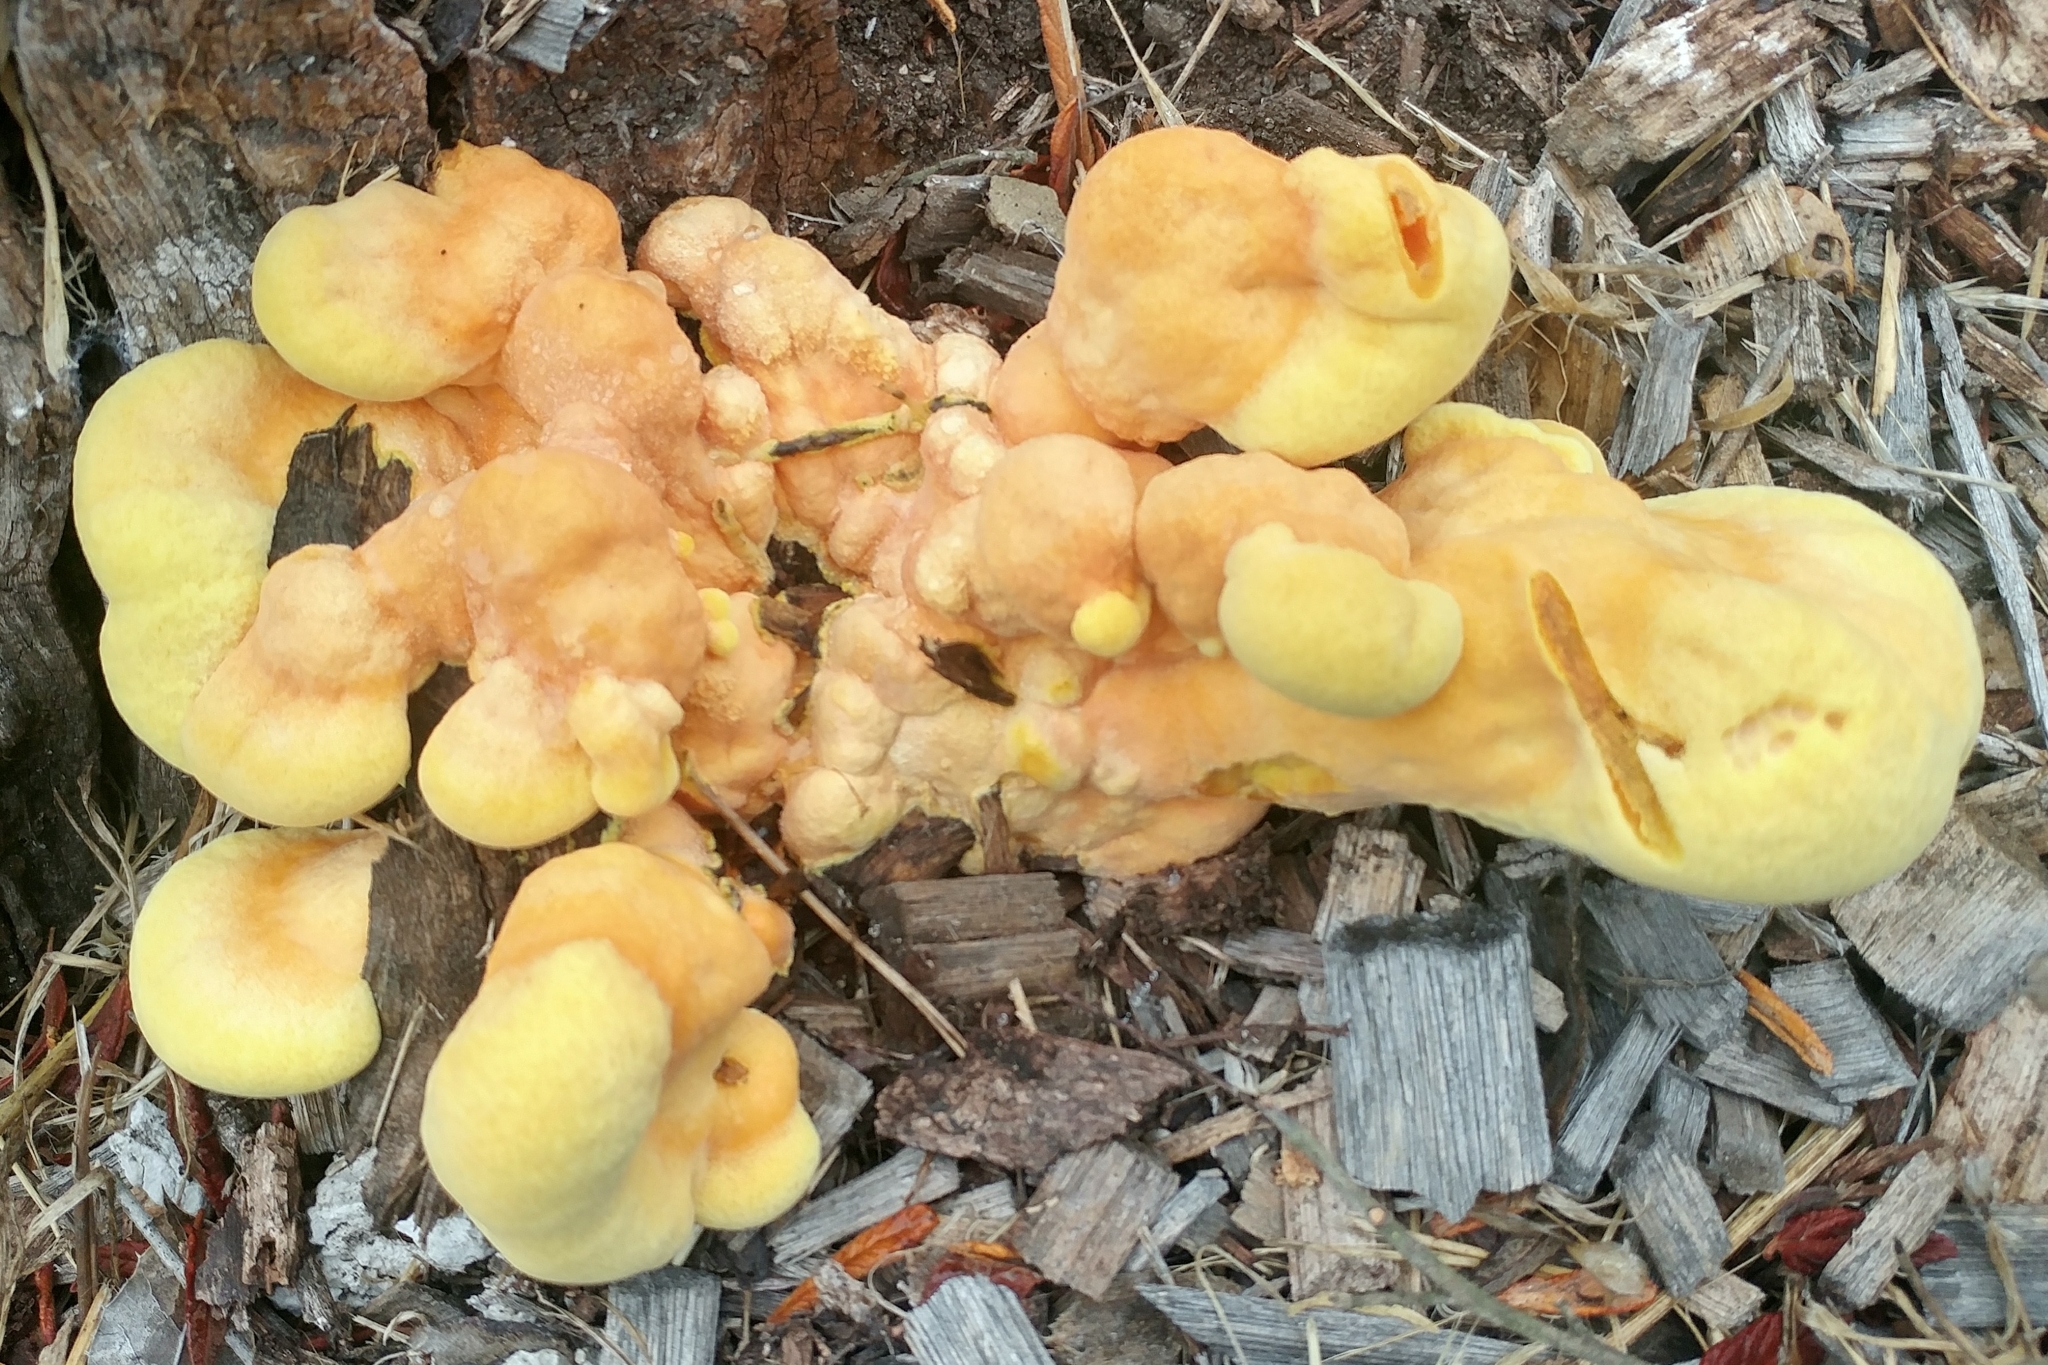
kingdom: Fungi
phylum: Basidiomycota
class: Agaricomycetes
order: Polyporales
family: Laetiporaceae
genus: Laetiporus
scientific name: Laetiporus gilbertsonii
